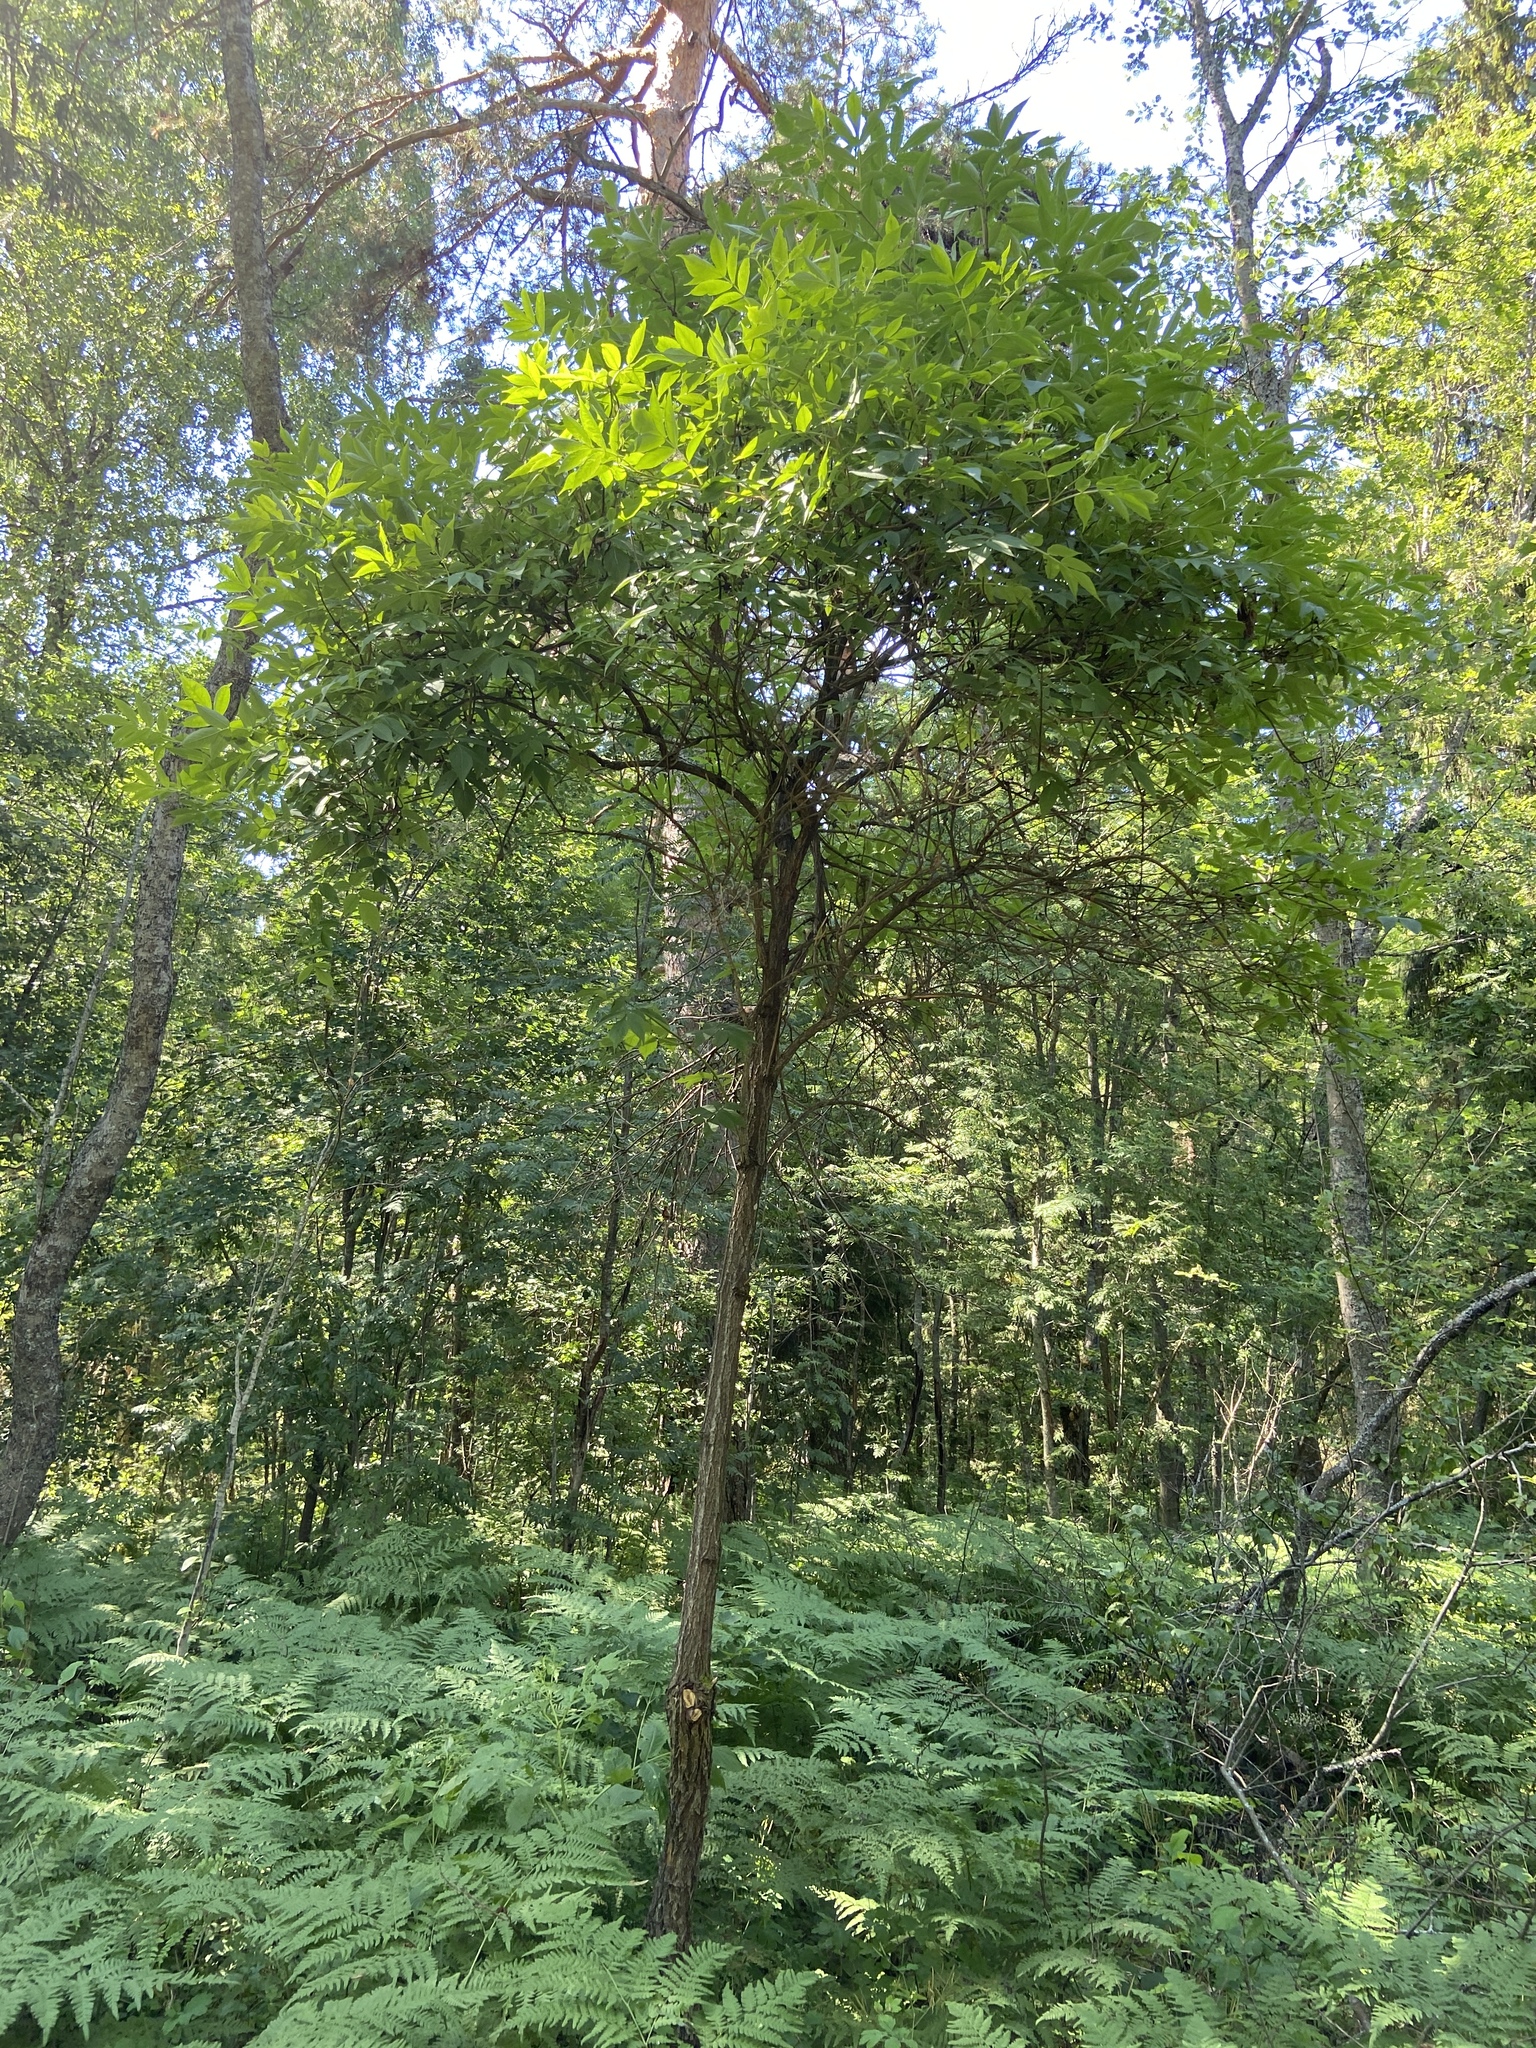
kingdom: Plantae
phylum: Tracheophyta
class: Magnoliopsida
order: Dipsacales
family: Viburnaceae
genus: Sambucus
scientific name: Sambucus racemosa
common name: Red-berried elder
